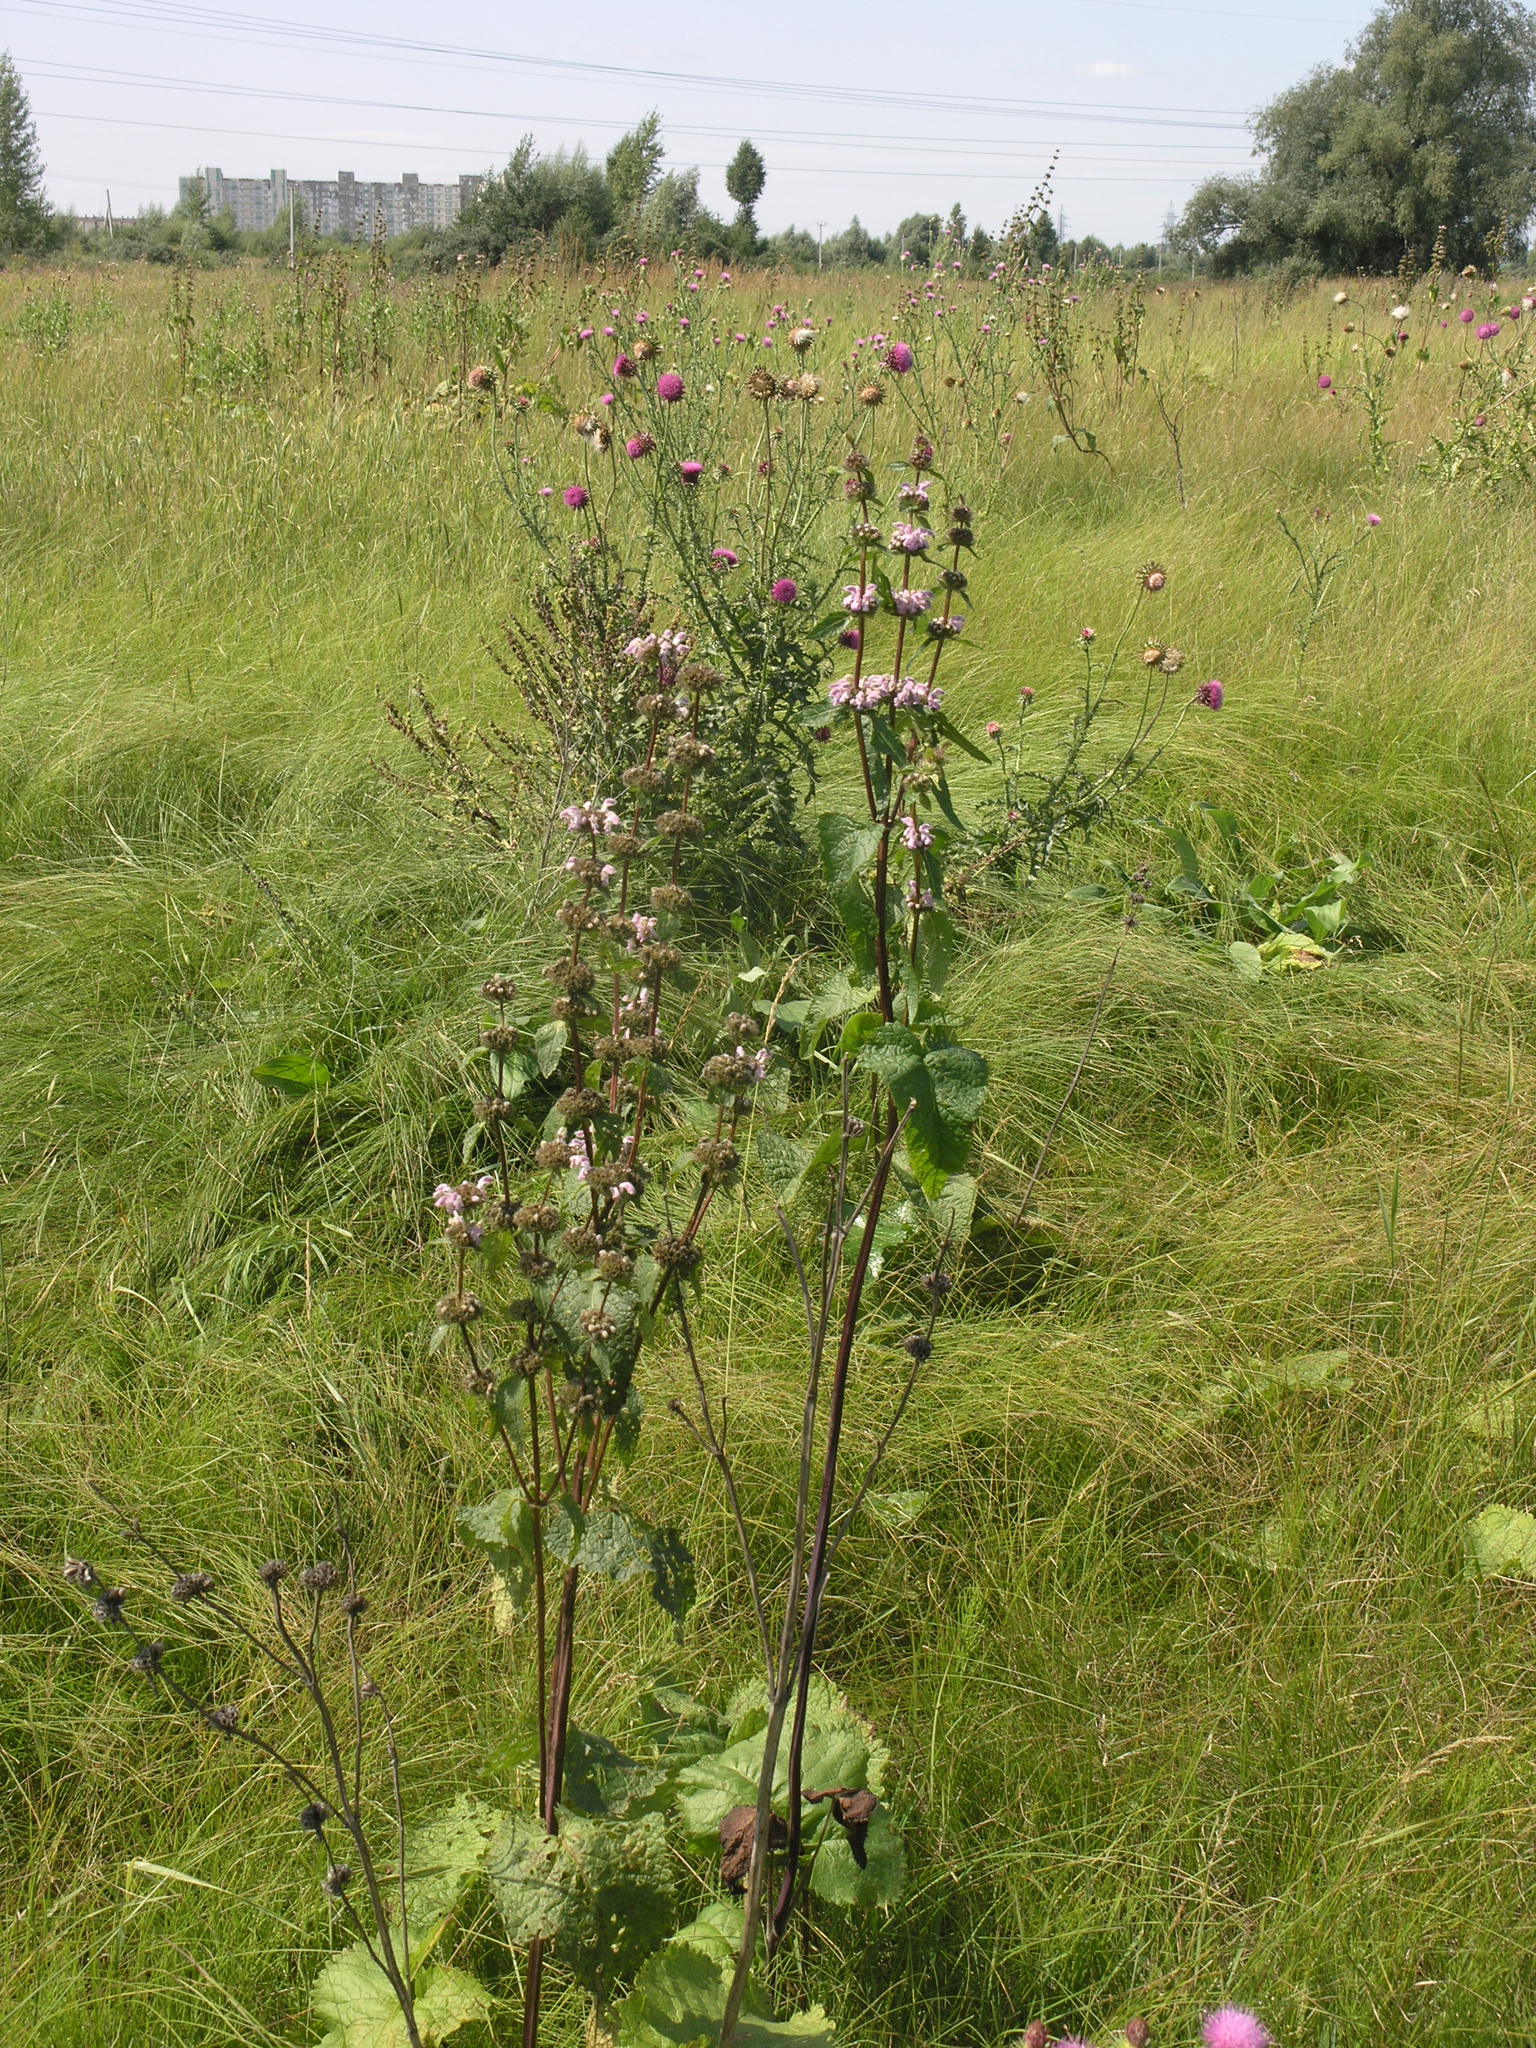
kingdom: Plantae
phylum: Tracheophyta
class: Magnoliopsida
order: Lamiales
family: Lamiaceae
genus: Phlomoides
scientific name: Phlomoides tuberosa
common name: Tuberous jerusalem sage
